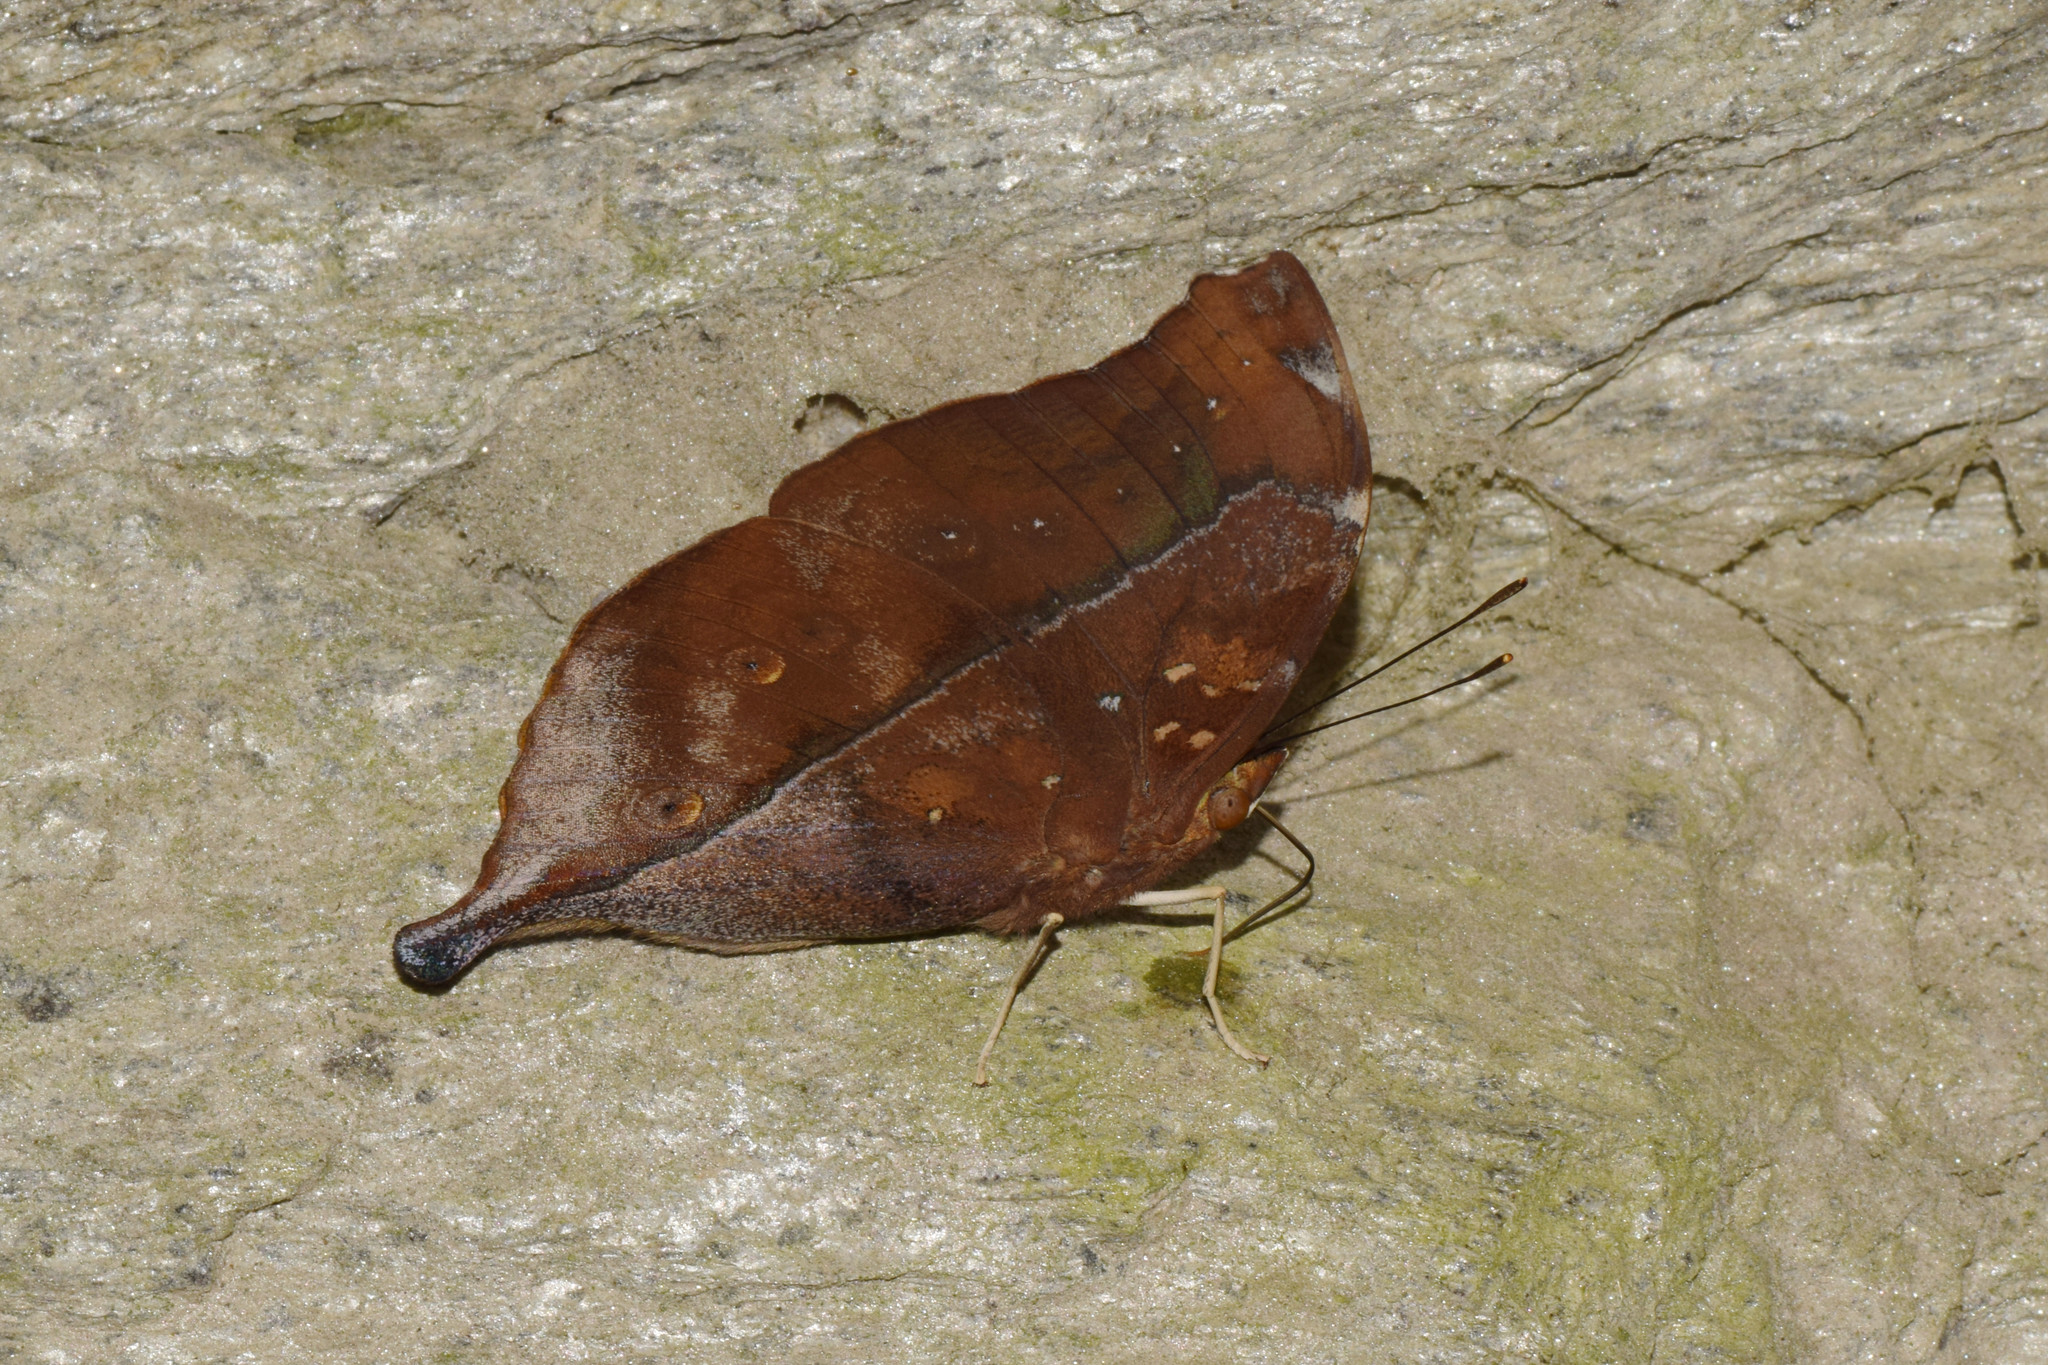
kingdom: Animalia
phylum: Arthropoda
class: Insecta
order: Lepidoptera
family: Nymphalidae
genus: Doleschallia
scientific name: Doleschallia bisaltide
